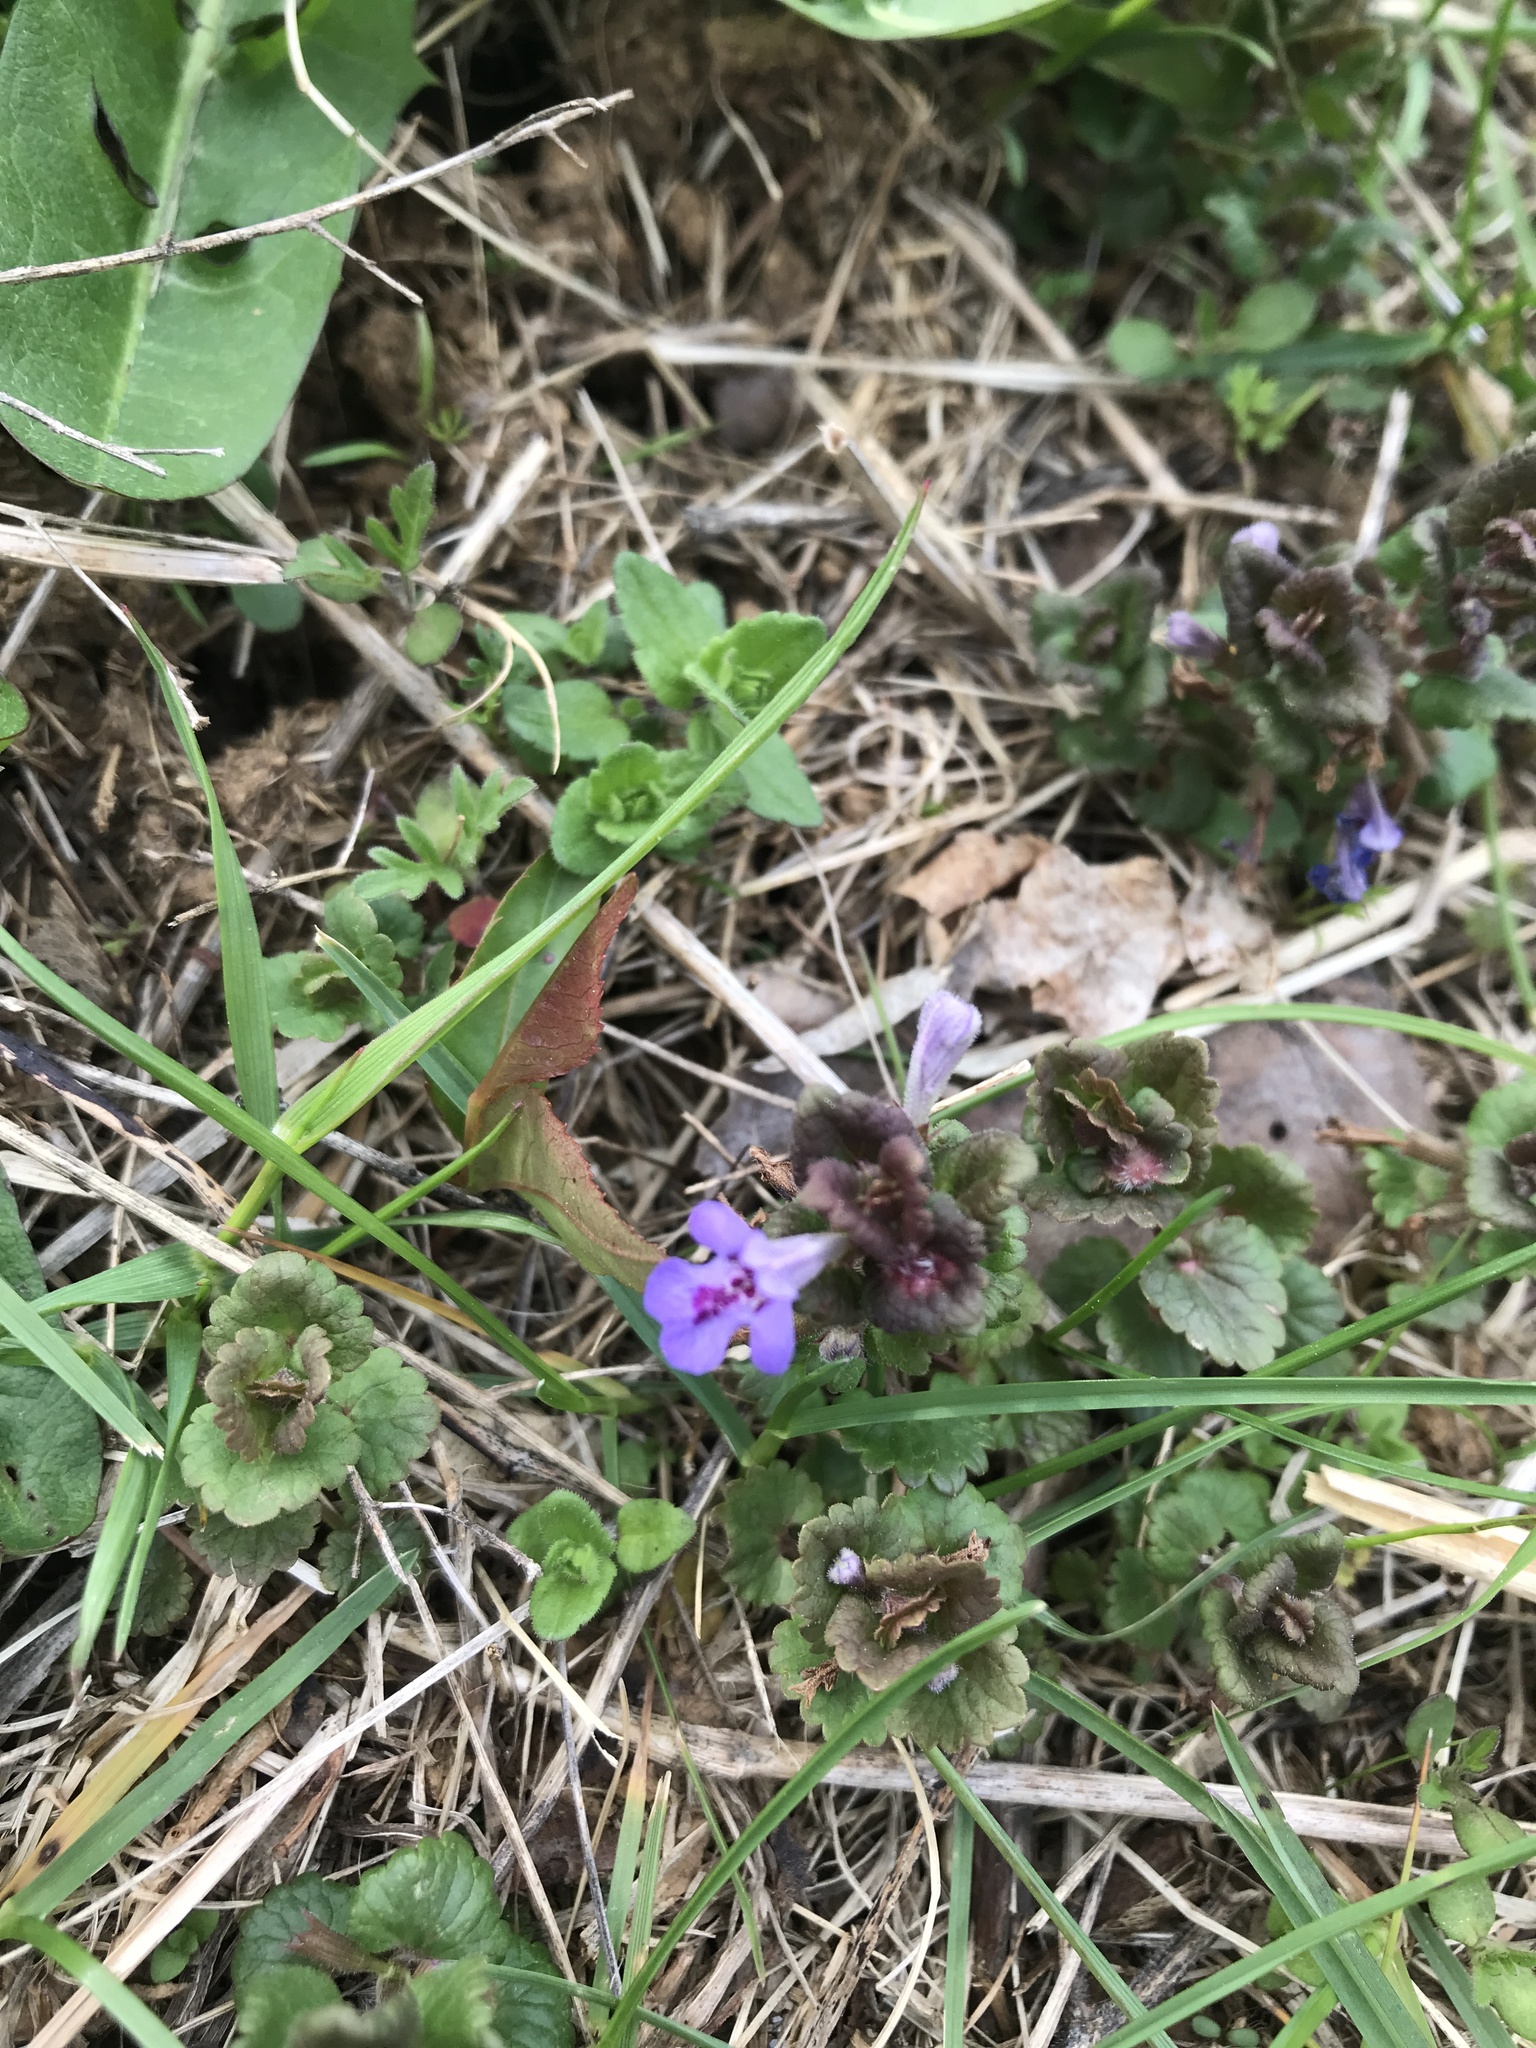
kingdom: Plantae
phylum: Tracheophyta
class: Magnoliopsida
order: Lamiales
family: Lamiaceae
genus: Glechoma
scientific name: Glechoma hederacea
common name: Ground ivy
